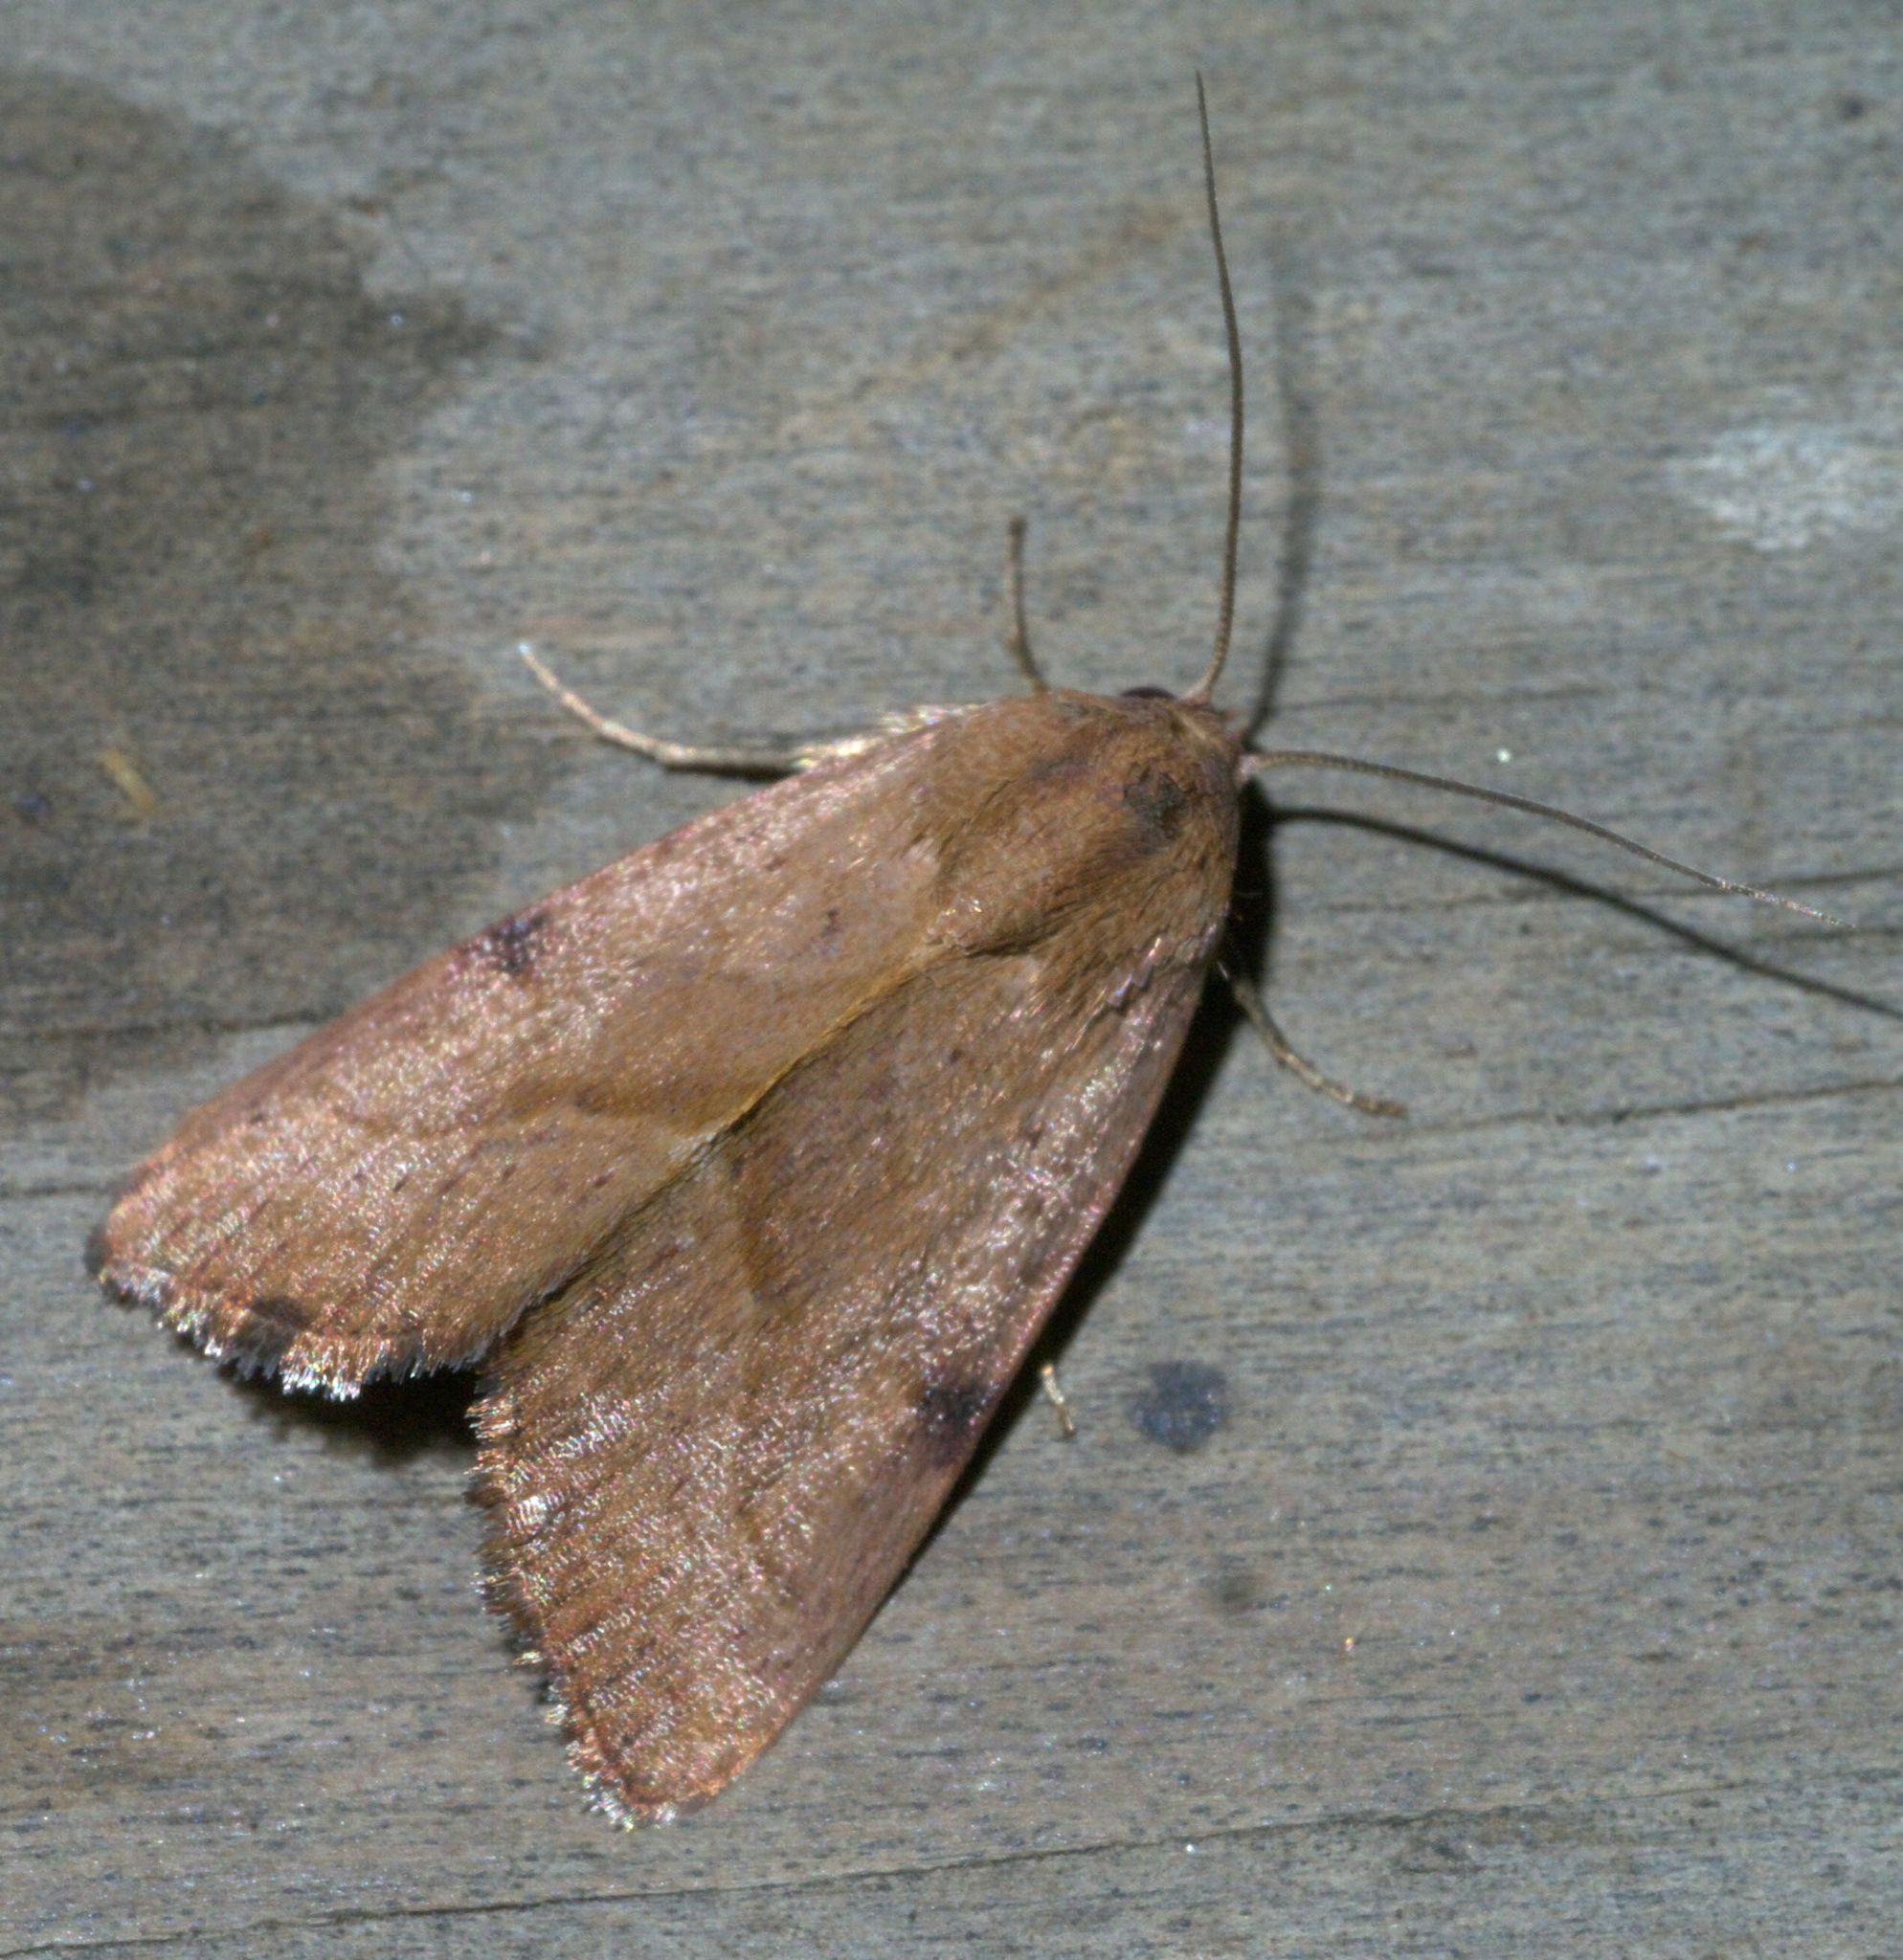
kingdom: Animalia
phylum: Arthropoda
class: Insecta
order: Lepidoptera
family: Noctuidae
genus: Galgula
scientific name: Galgula partita
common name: Wedgeling
